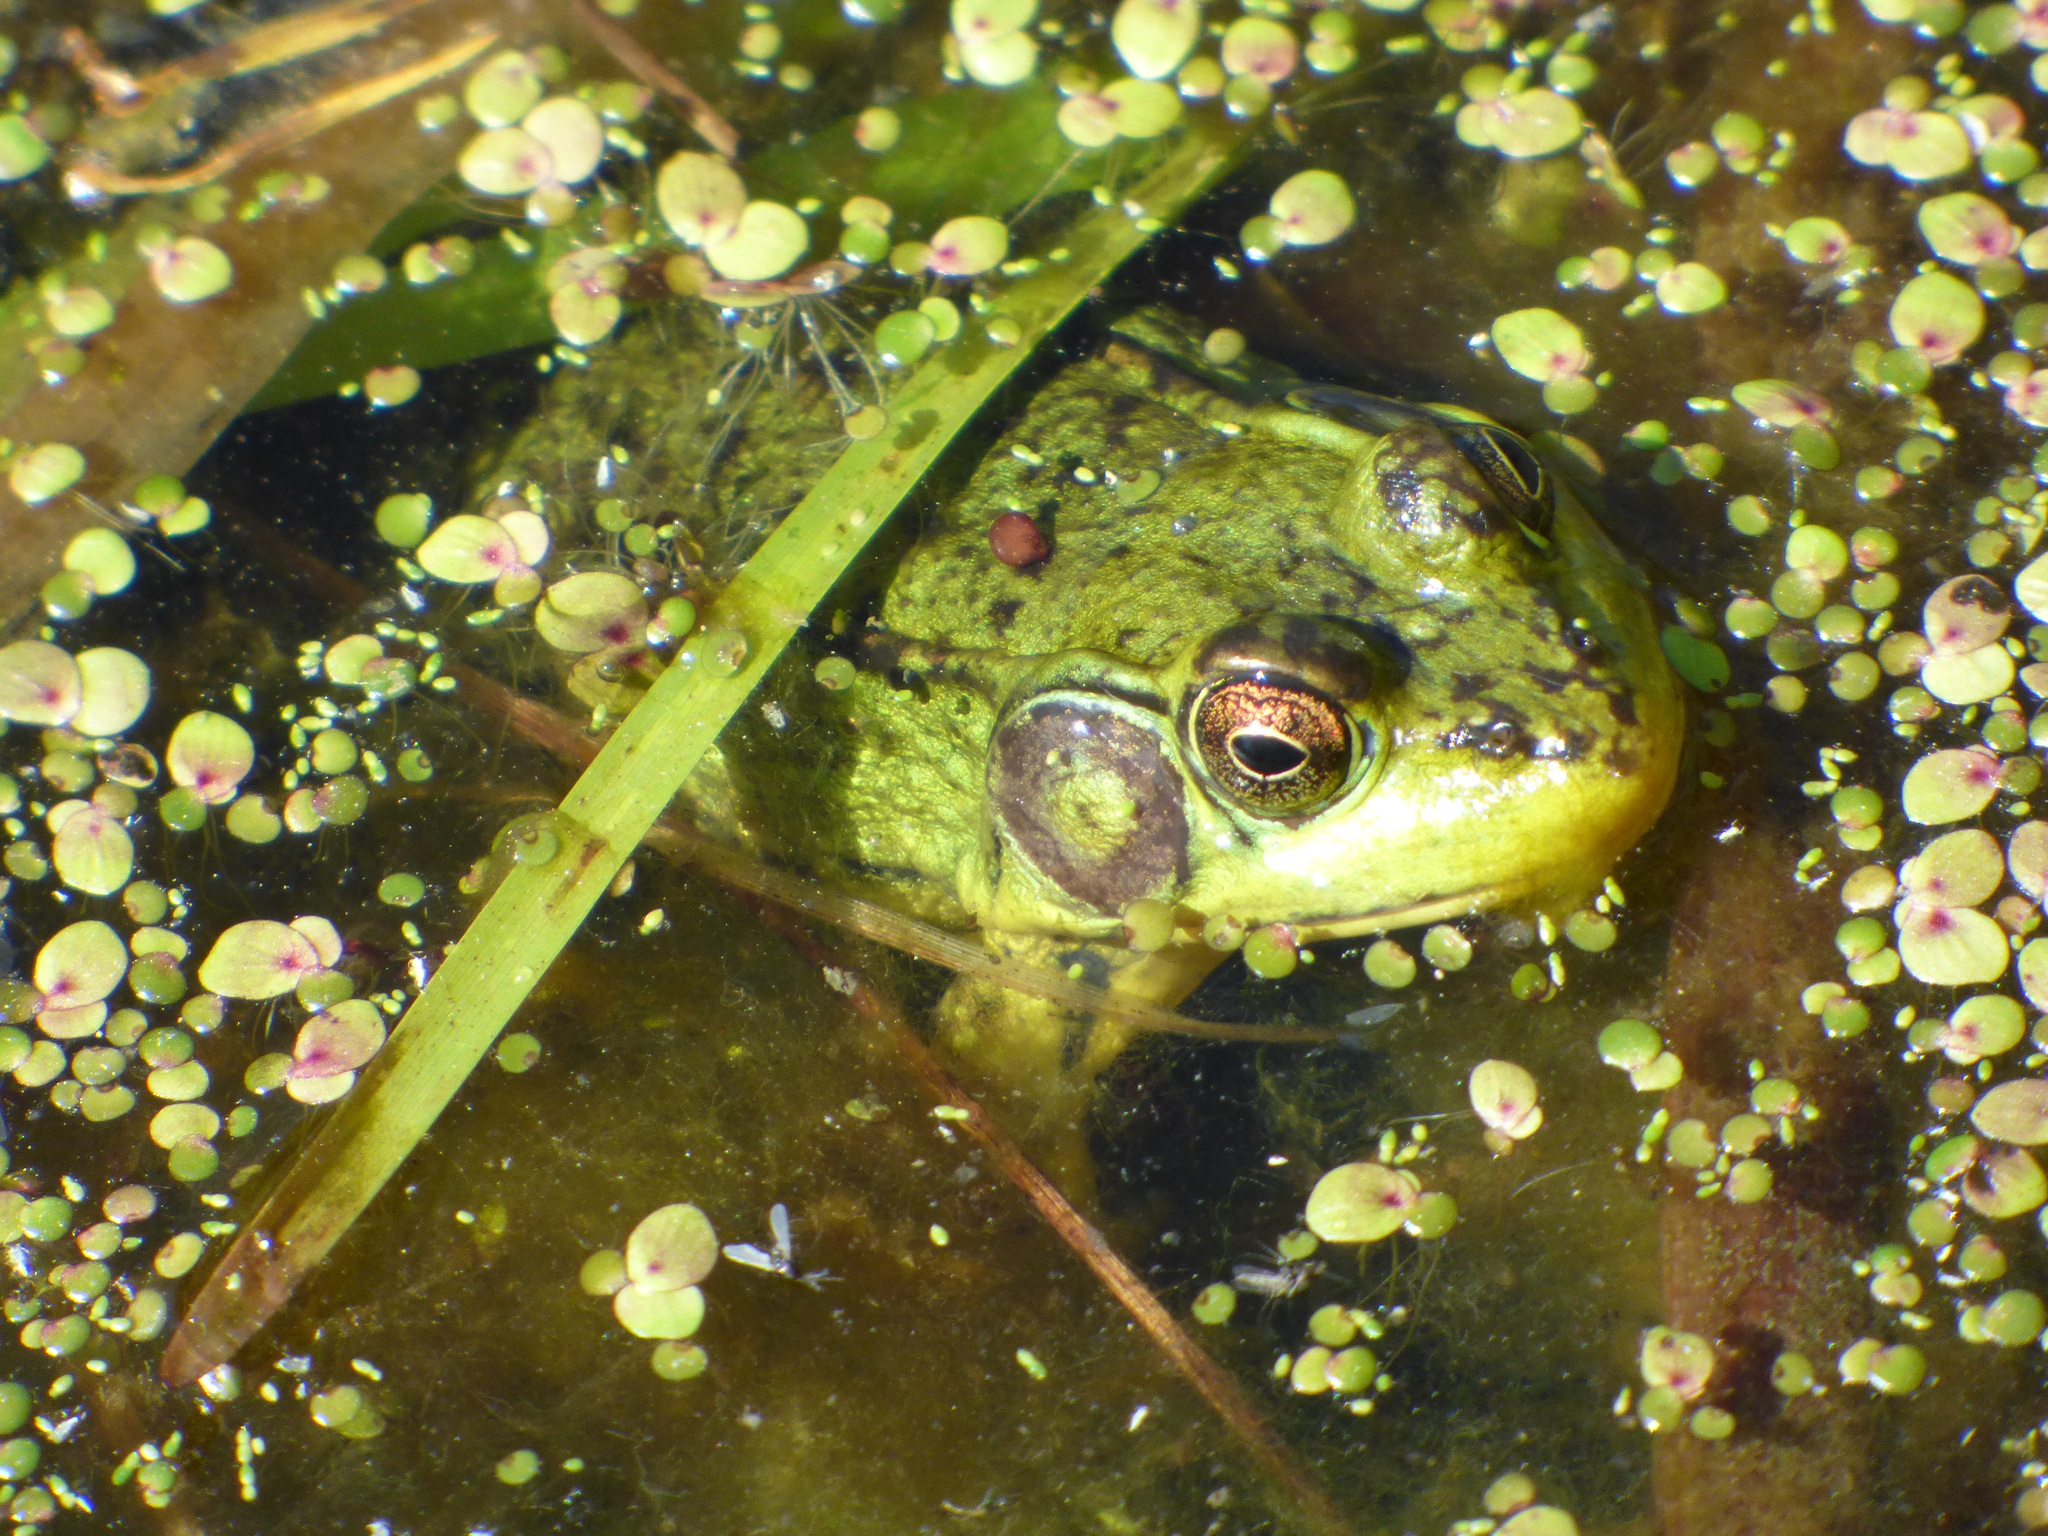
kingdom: Animalia
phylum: Chordata
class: Amphibia
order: Anura
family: Ranidae
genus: Lithobates
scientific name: Lithobates clamitans
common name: Green frog
